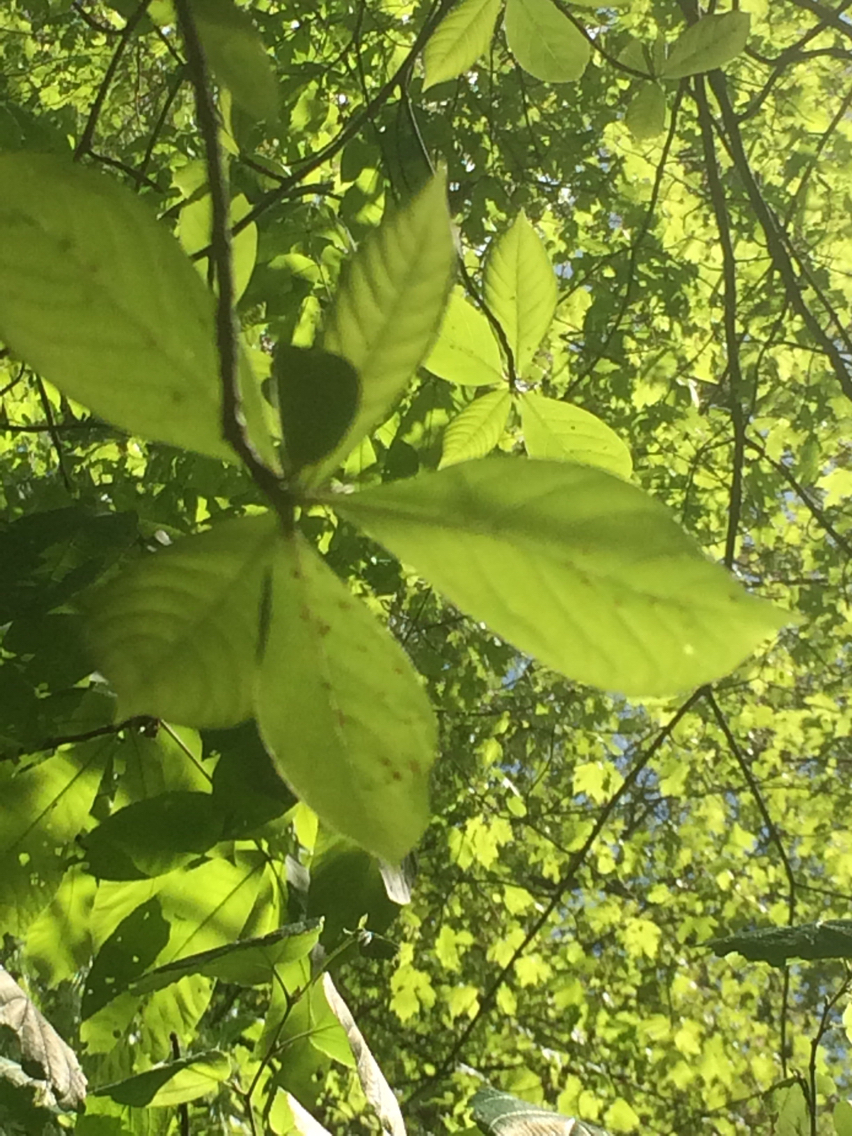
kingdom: Plantae
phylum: Tracheophyta
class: Magnoliopsida
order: Cornales
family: Nyssaceae
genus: Nyssa
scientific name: Nyssa sylvatica
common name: Black tupelo
